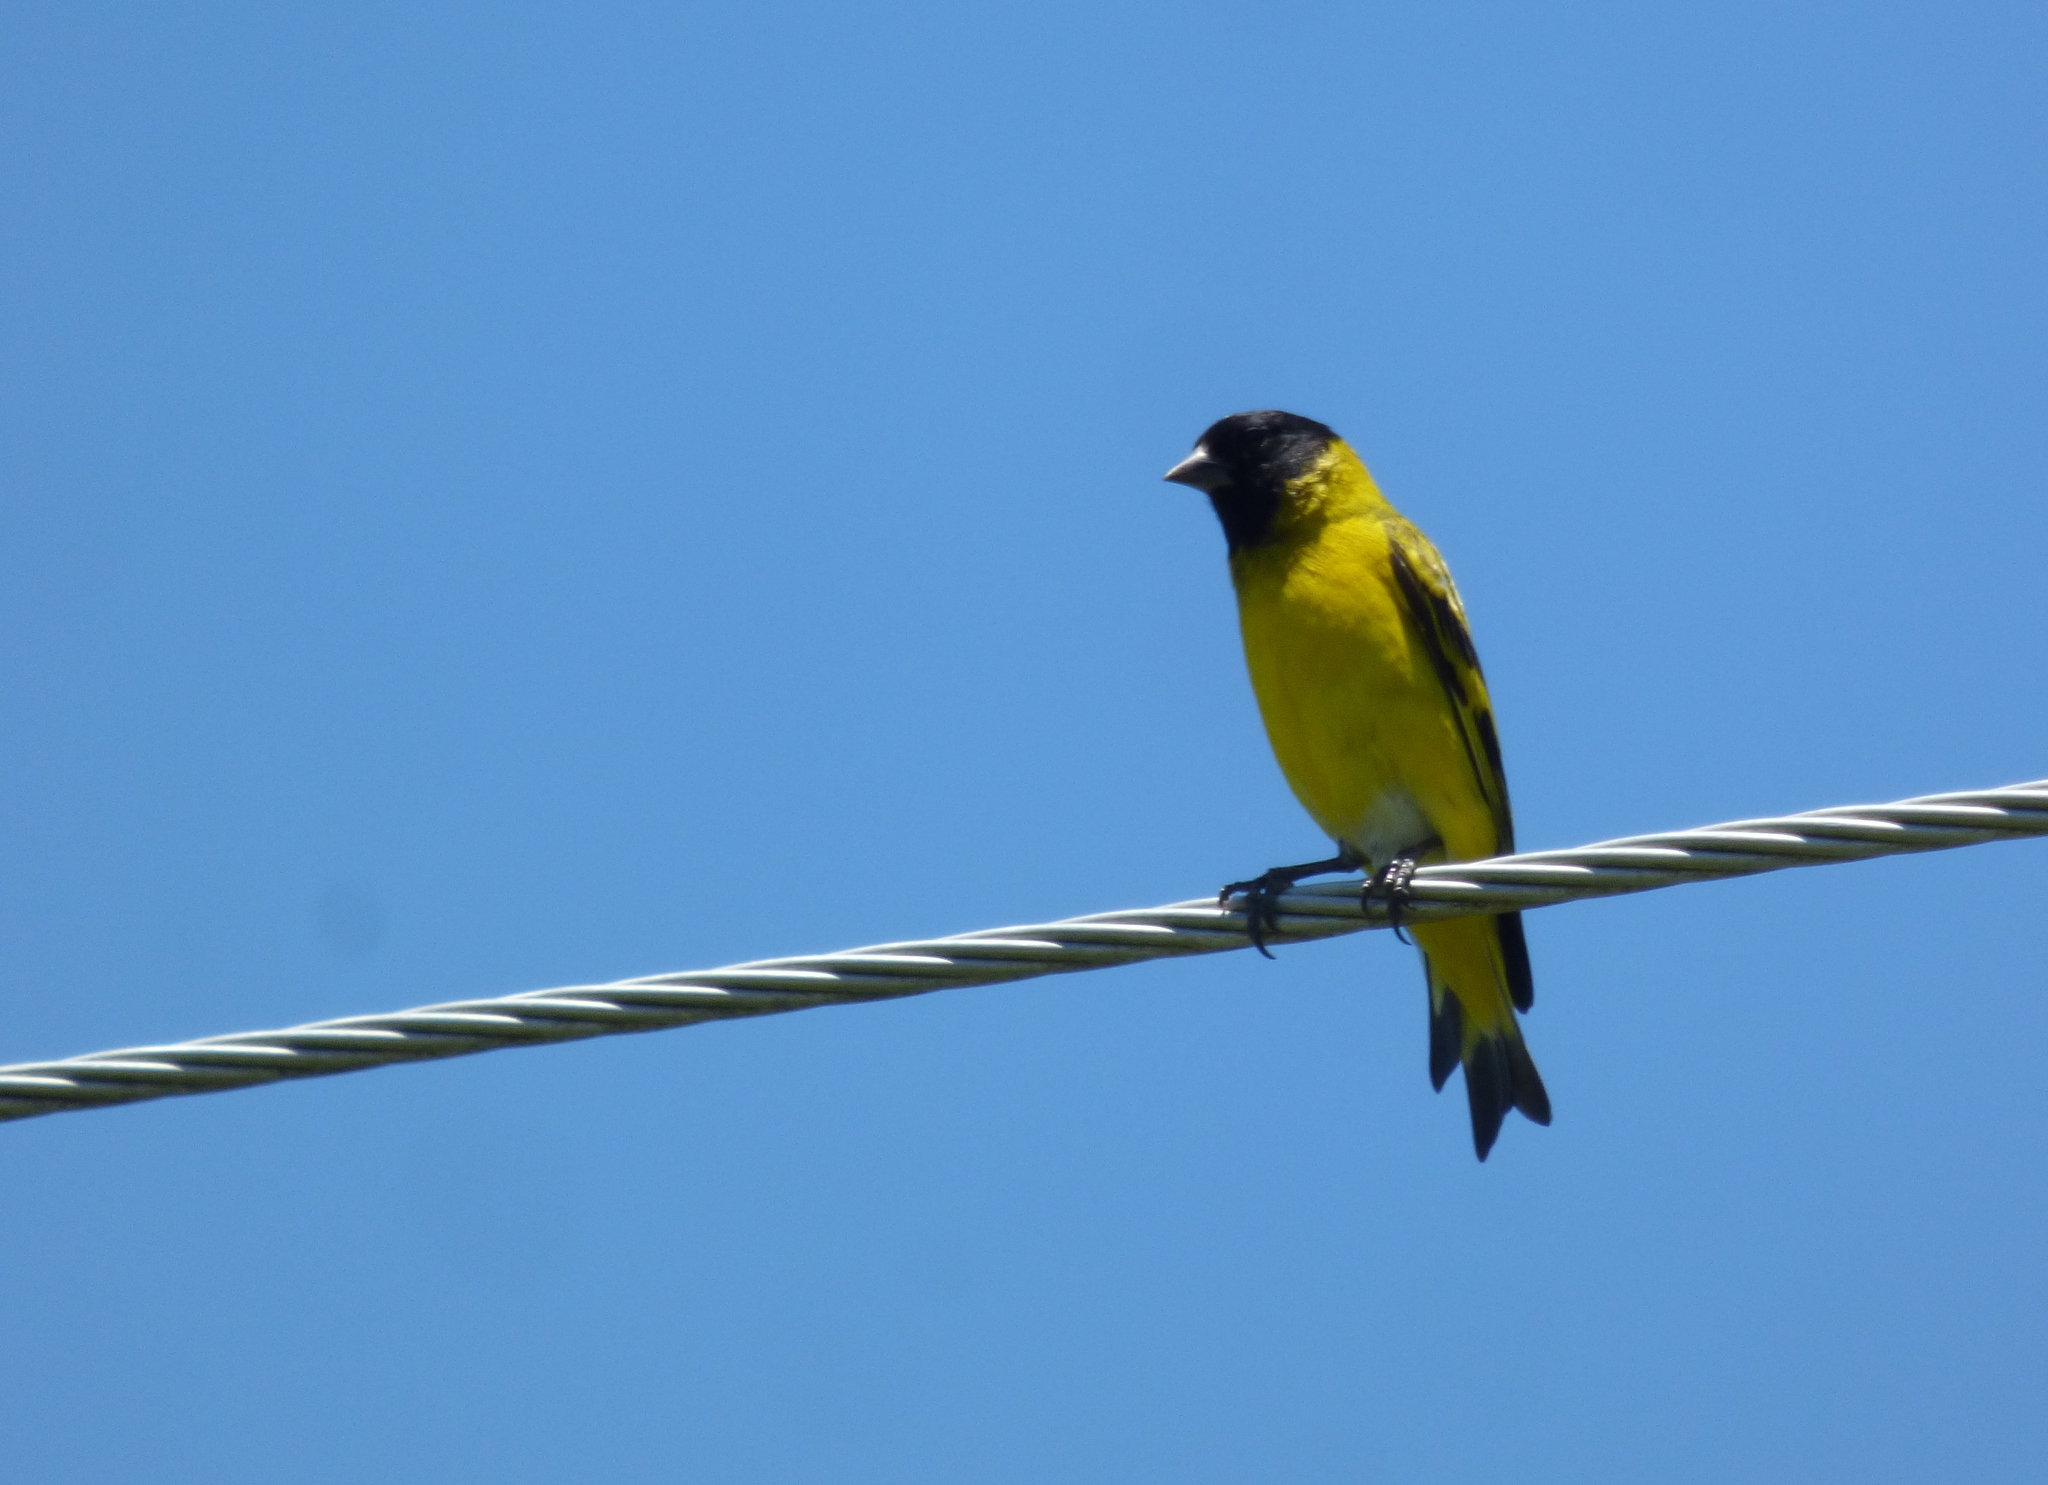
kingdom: Animalia
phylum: Chordata
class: Aves
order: Passeriformes
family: Fringillidae
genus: Spinus
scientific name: Spinus magellanicus
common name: Hooded siskin
